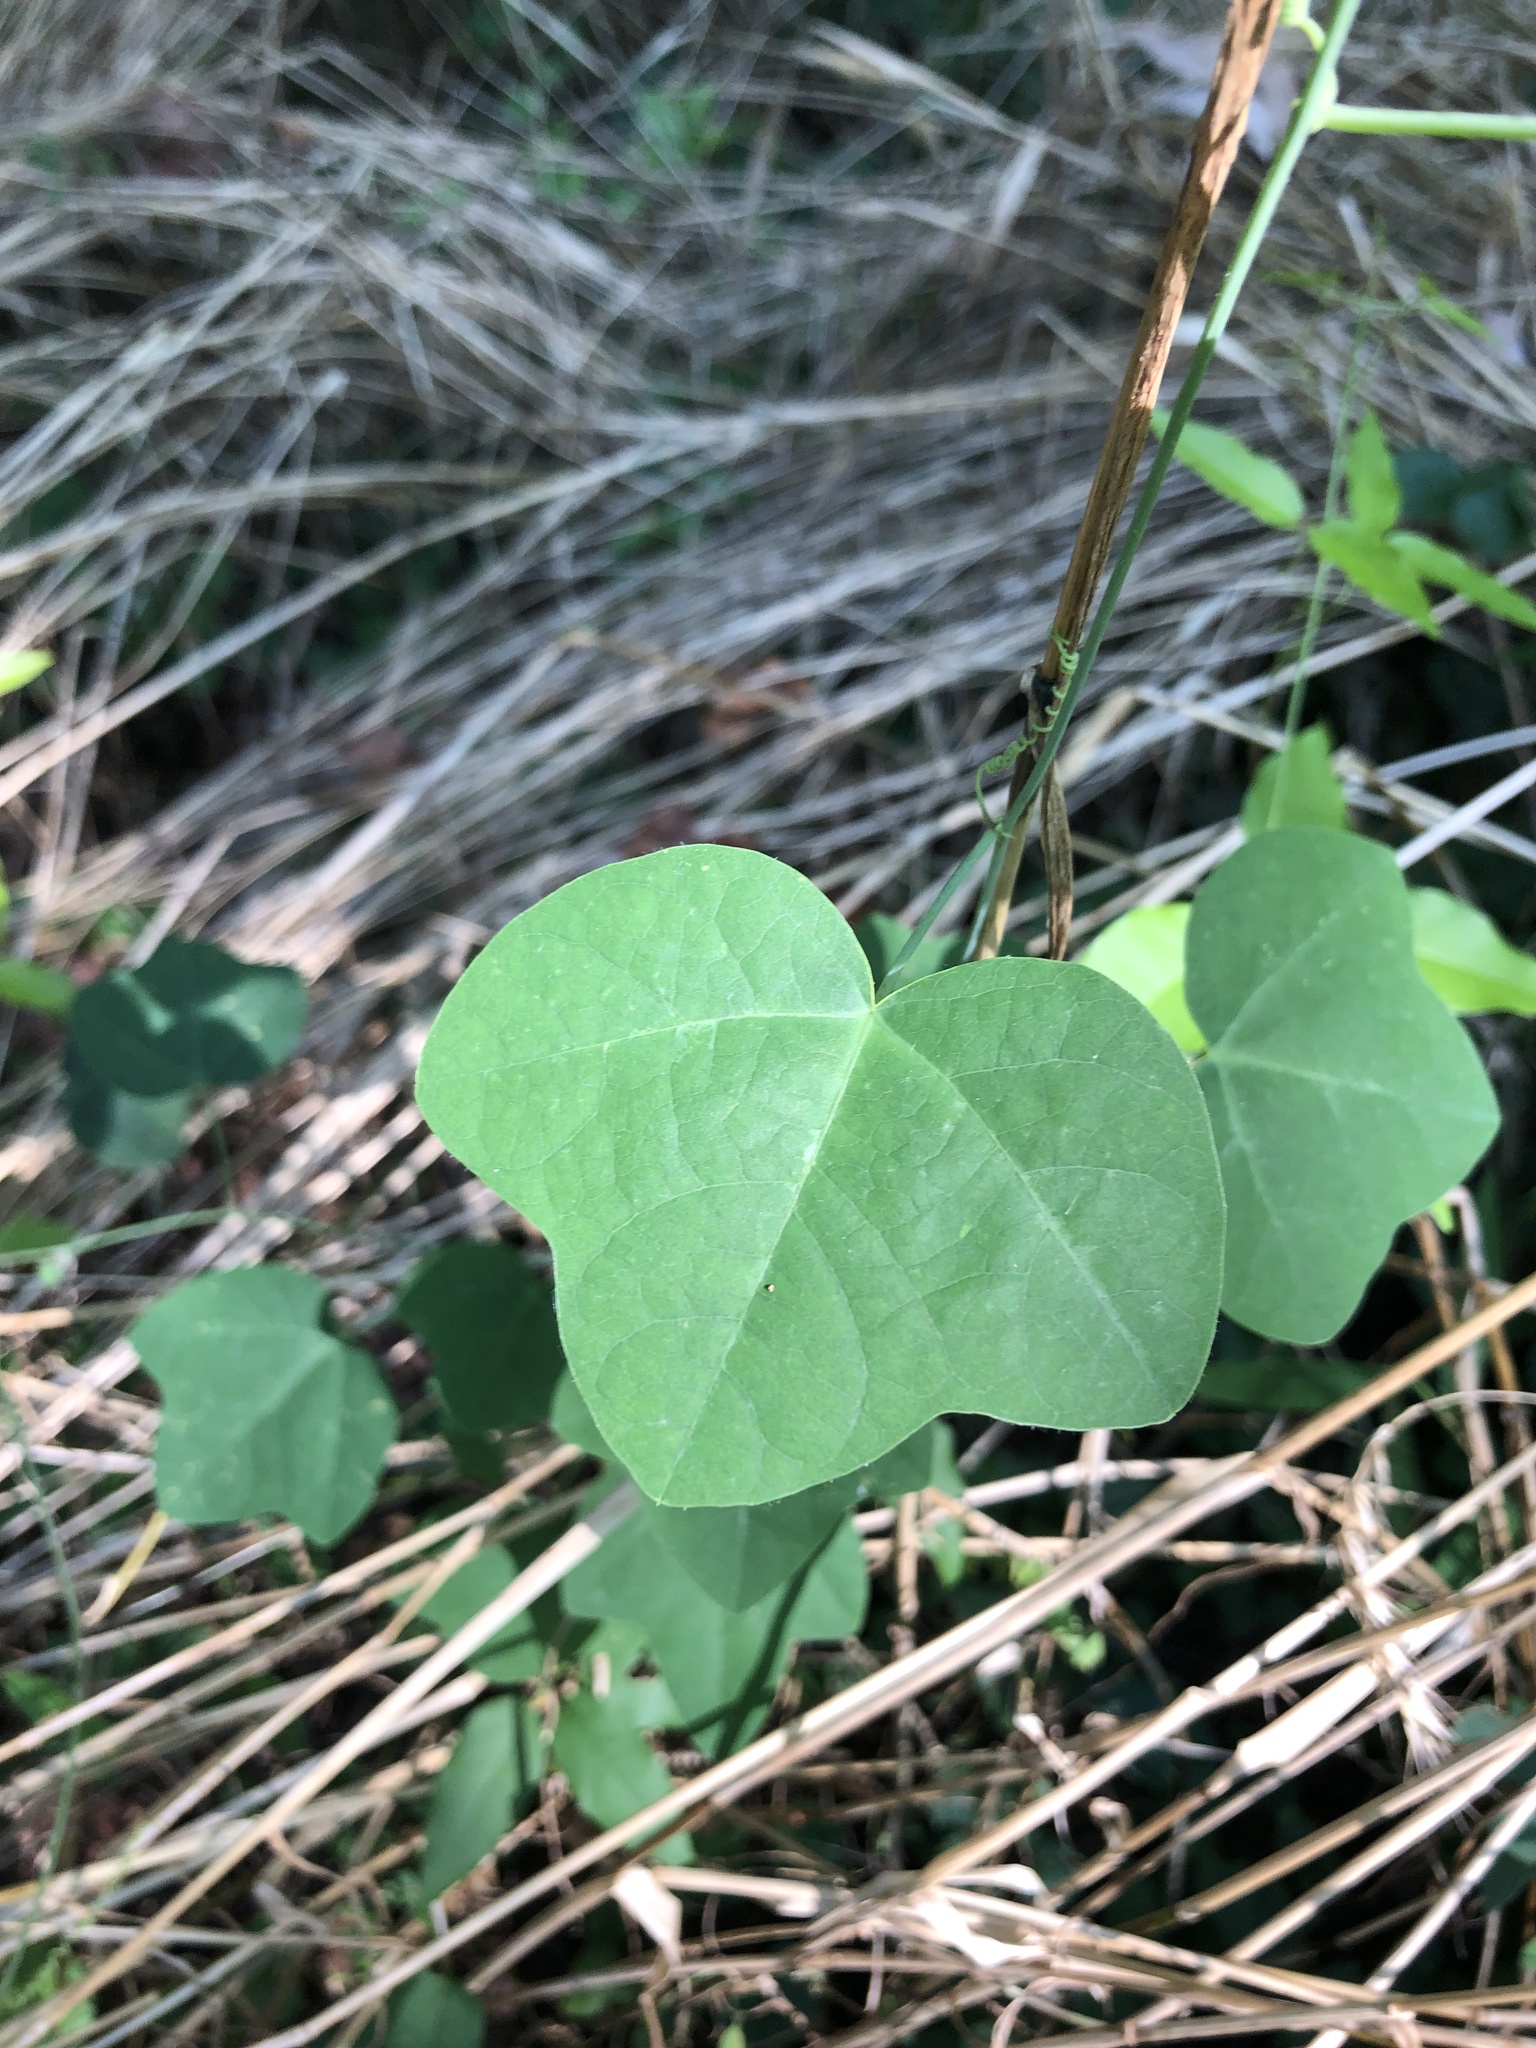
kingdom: Plantae
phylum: Tracheophyta
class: Magnoliopsida
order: Malpighiales
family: Passifloraceae
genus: Passiflora
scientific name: Passiflora lutea
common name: Yellow passionflower
